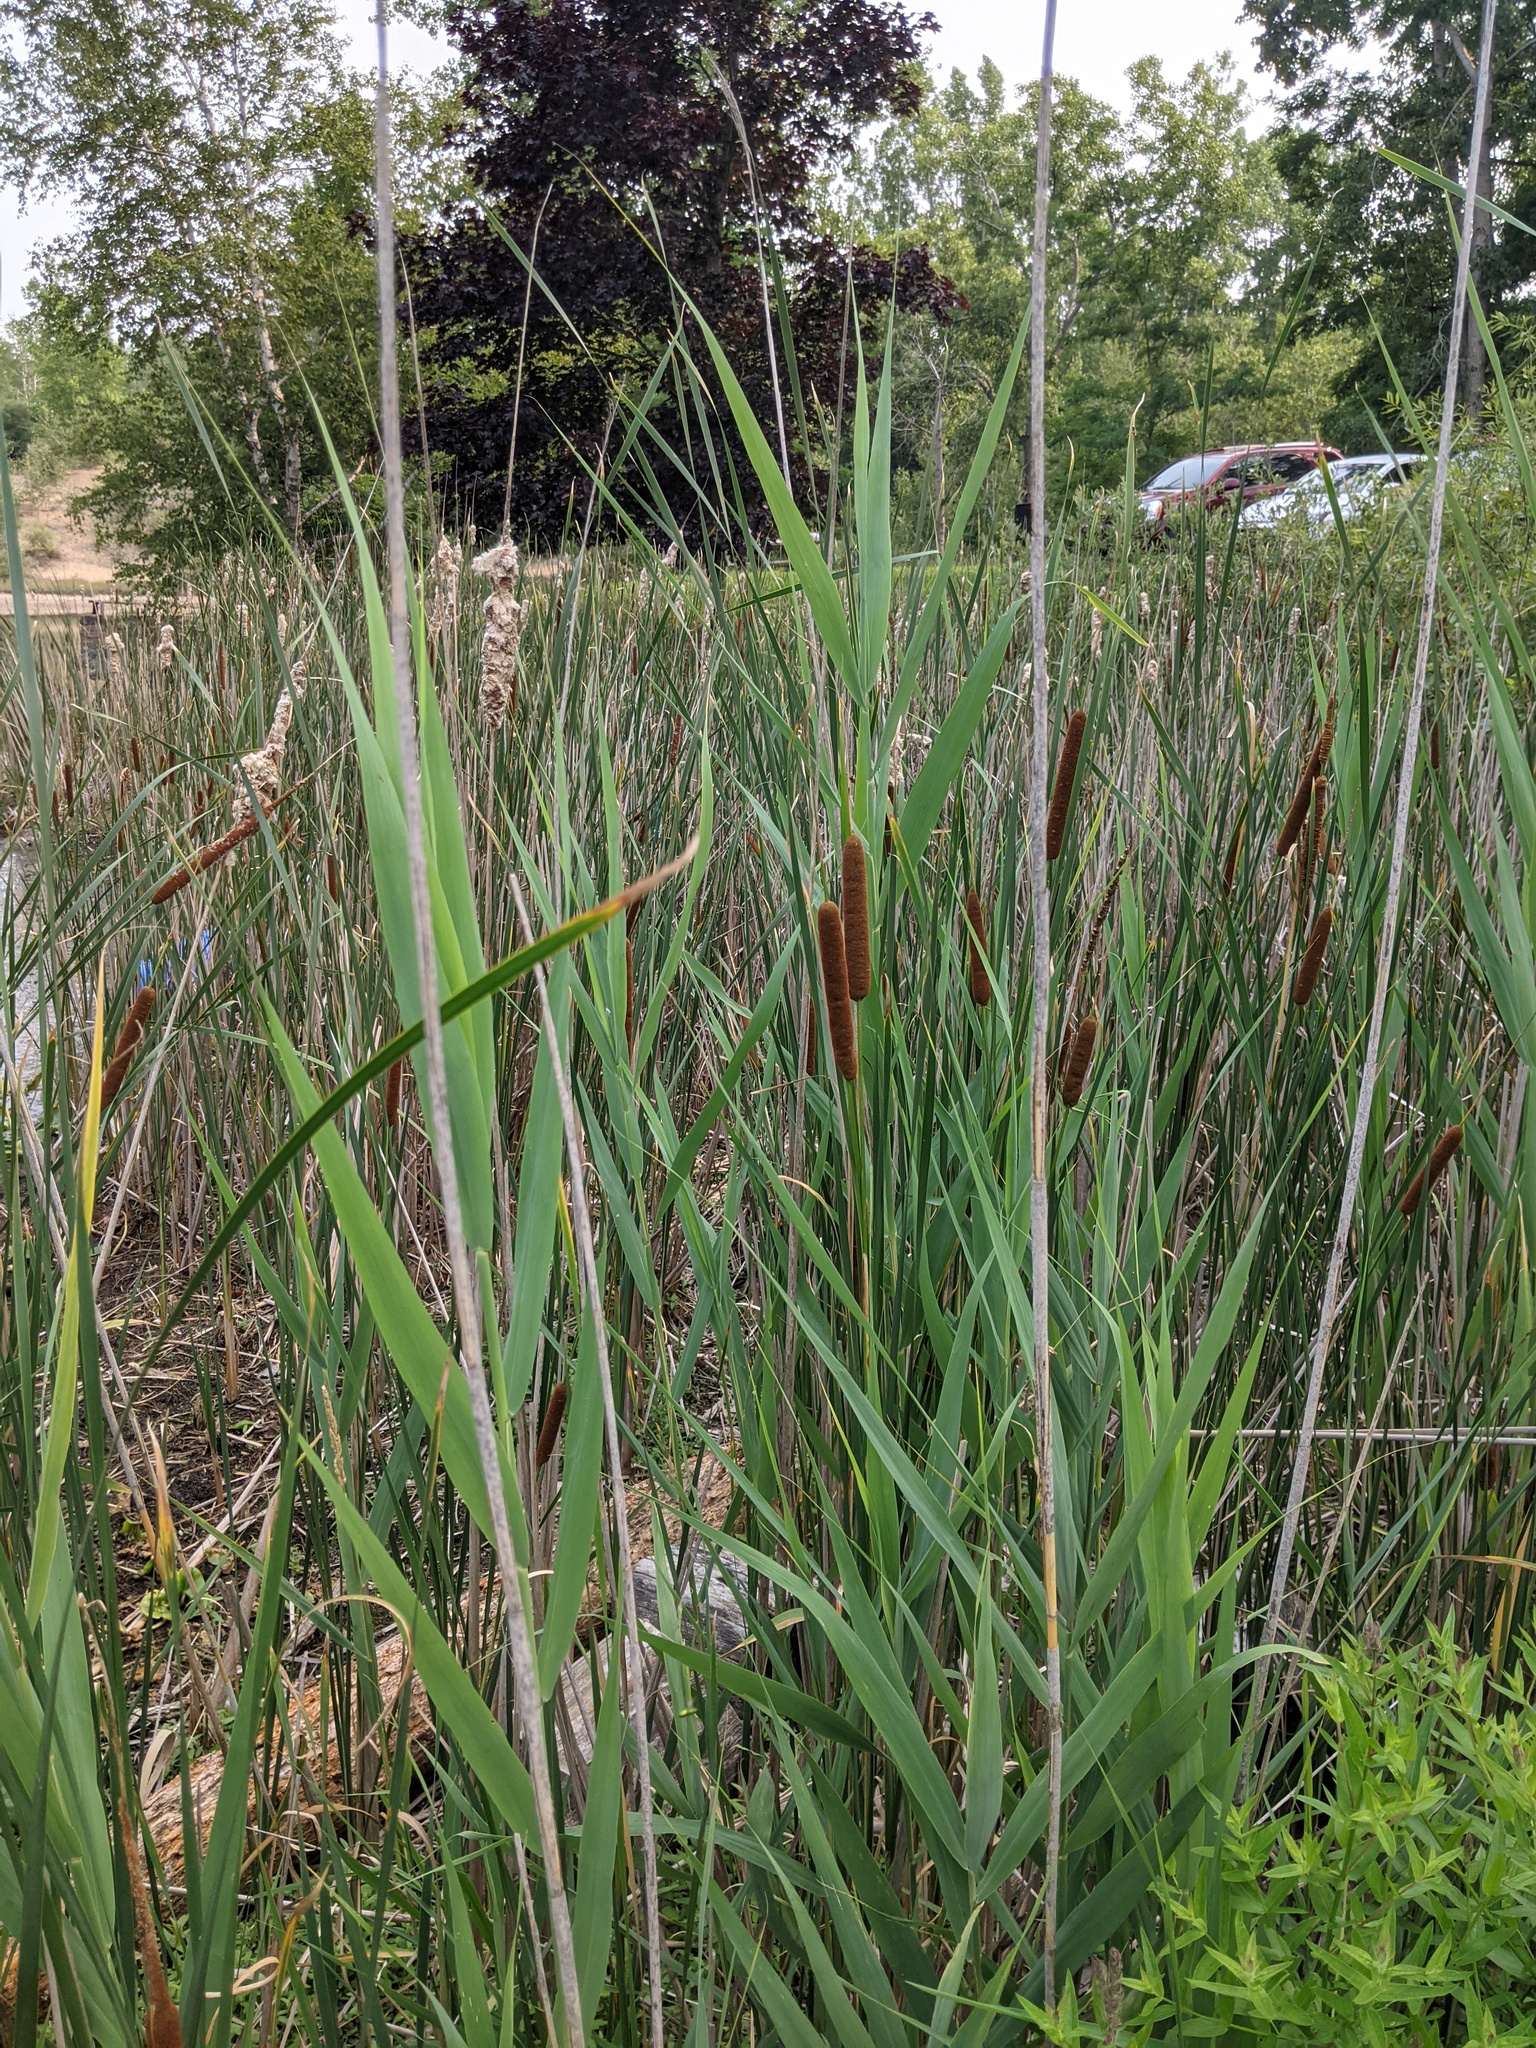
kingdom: Plantae
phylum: Tracheophyta
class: Liliopsida
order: Poales
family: Typhaceae
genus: Typha
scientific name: Typha angustifolia
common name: Lesser bulrush
